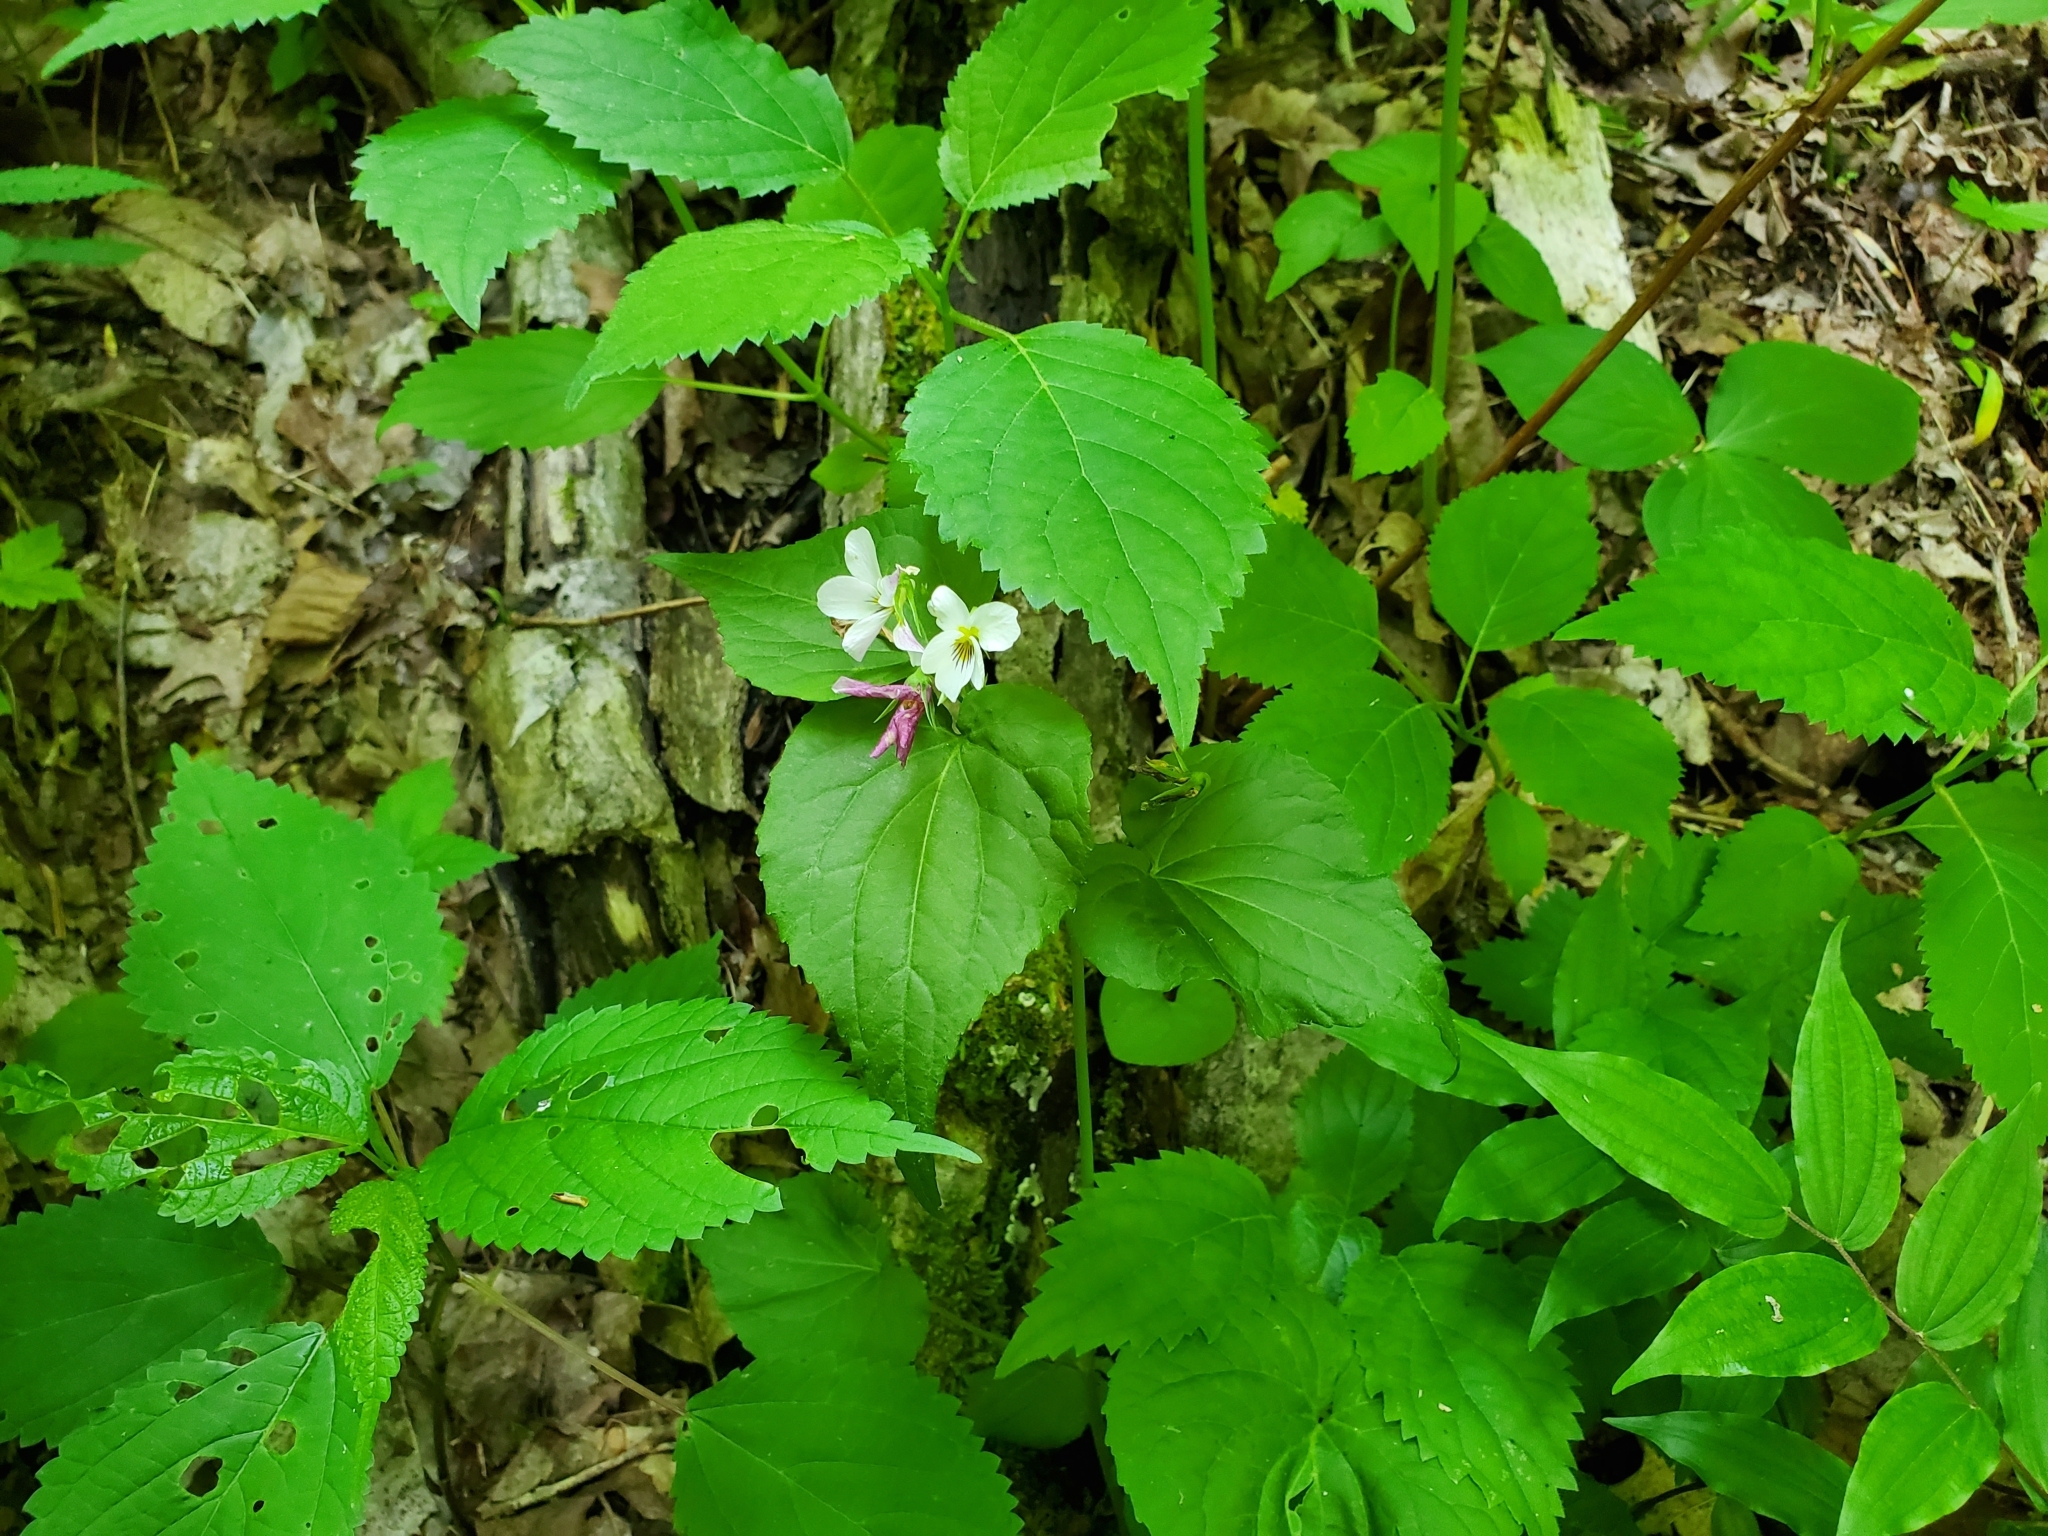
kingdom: Plantae
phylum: Tracheophyta
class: Magnoliopsida
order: Malpighiales
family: Violaceae
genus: Viola
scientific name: Viola canadensis
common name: Canada violet
